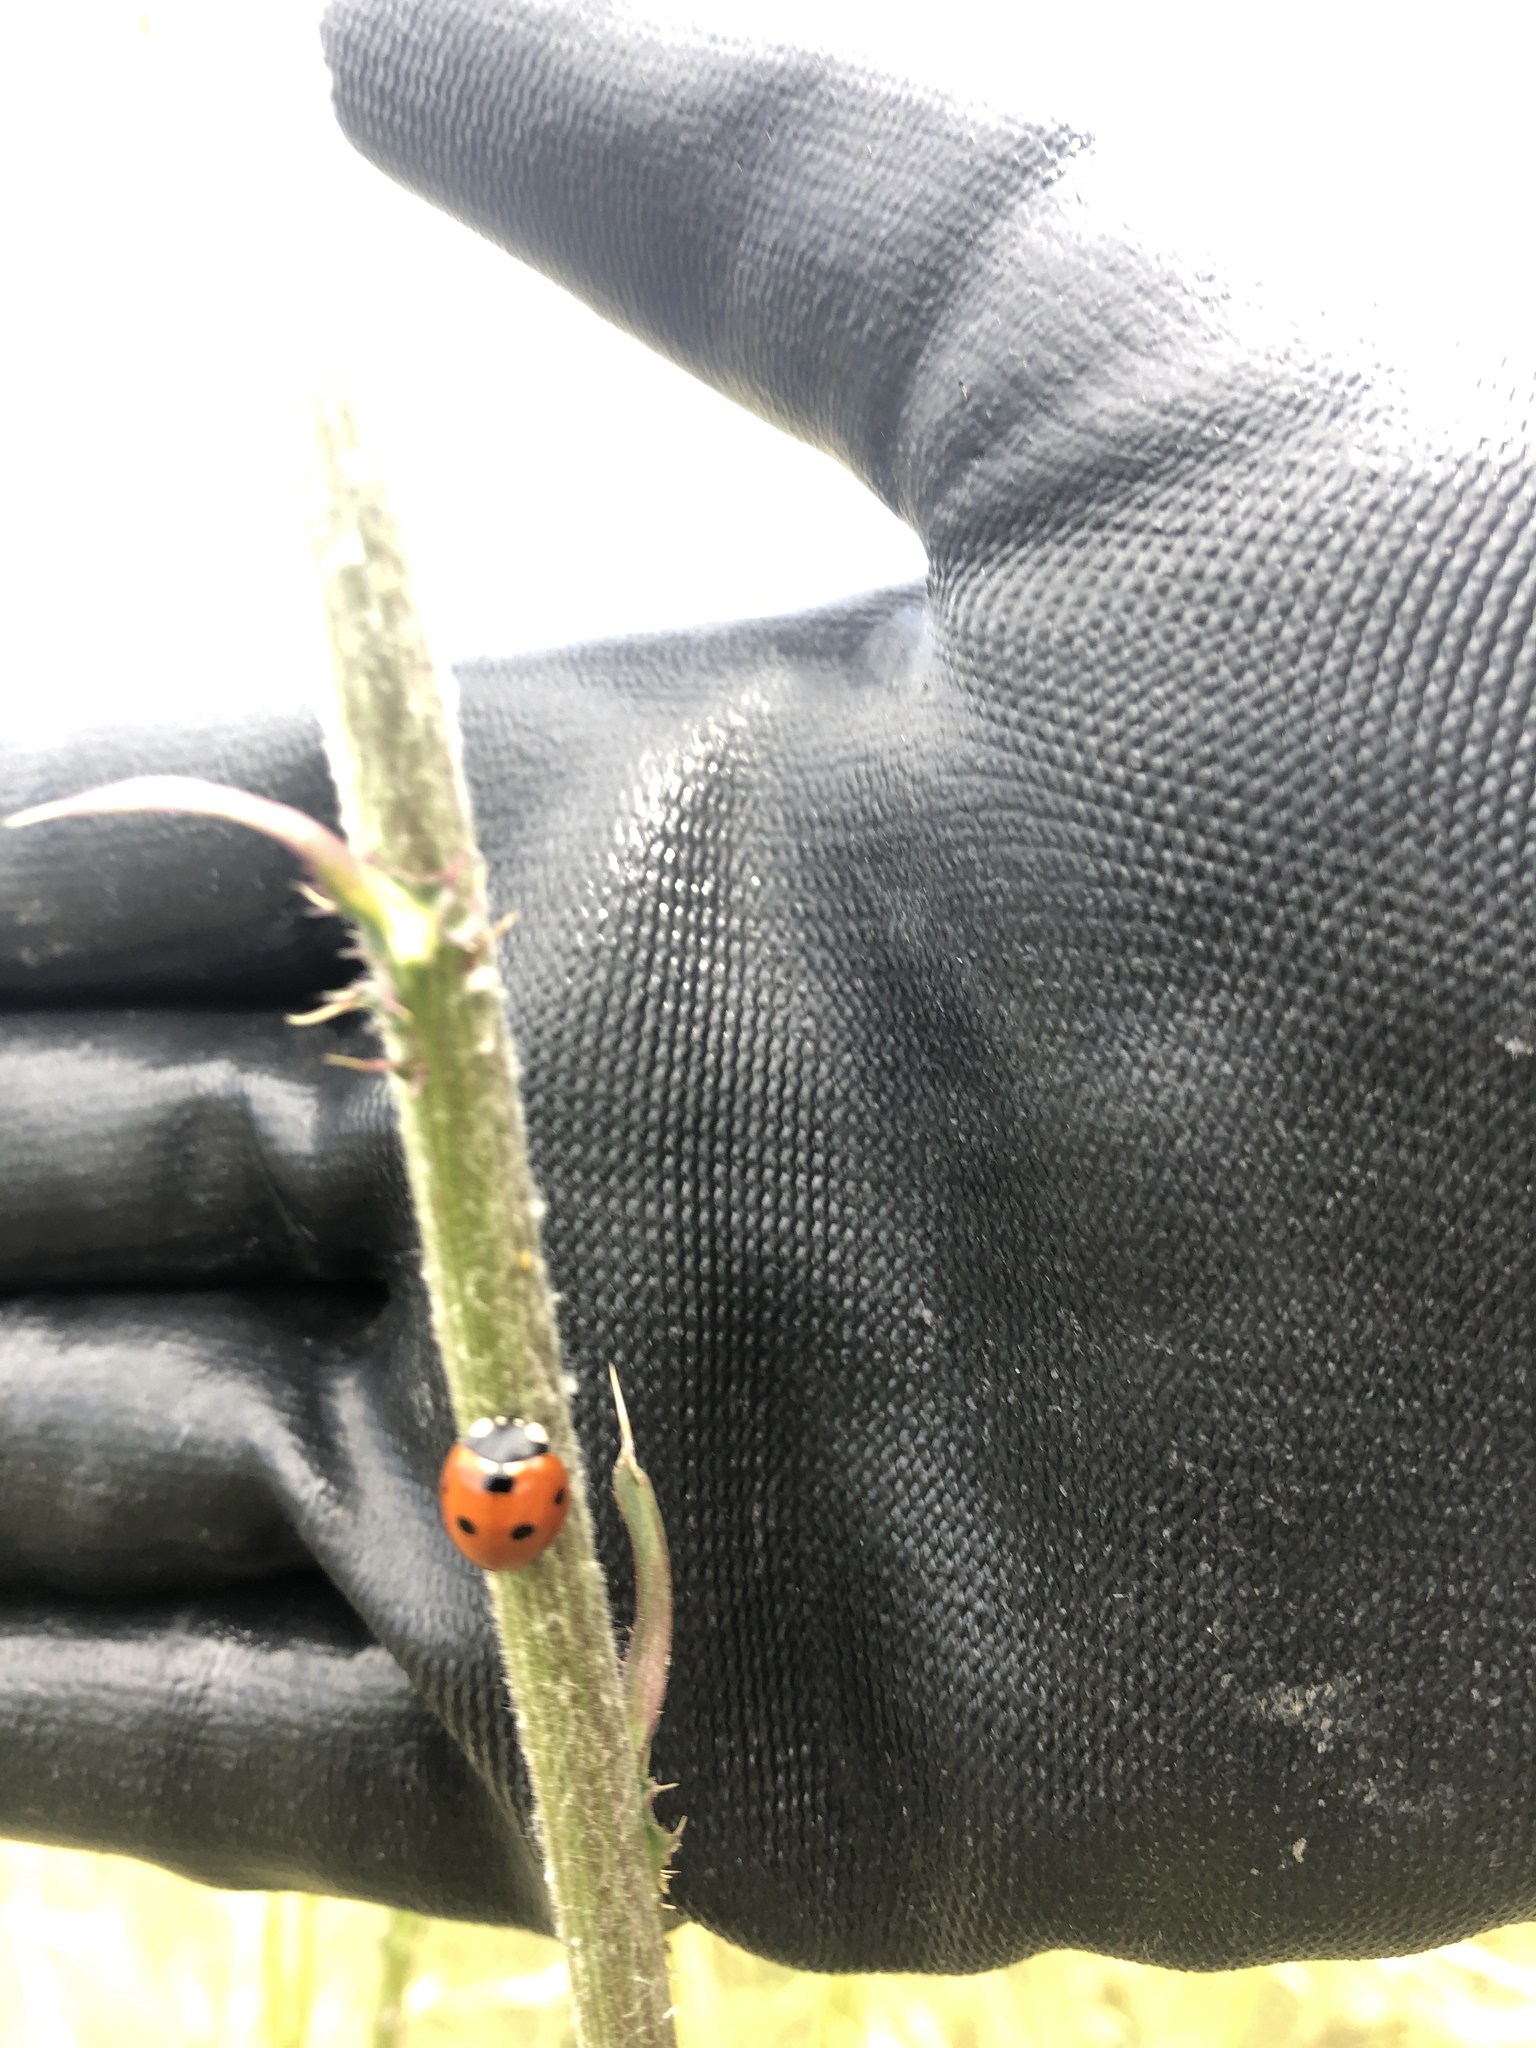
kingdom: Animalia
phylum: Arthropoda
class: Insecta
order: Coleoptera
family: Coccinellidae
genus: Coccinella
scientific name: Coccinella septempunctata
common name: Sevenspotted lady beetle
